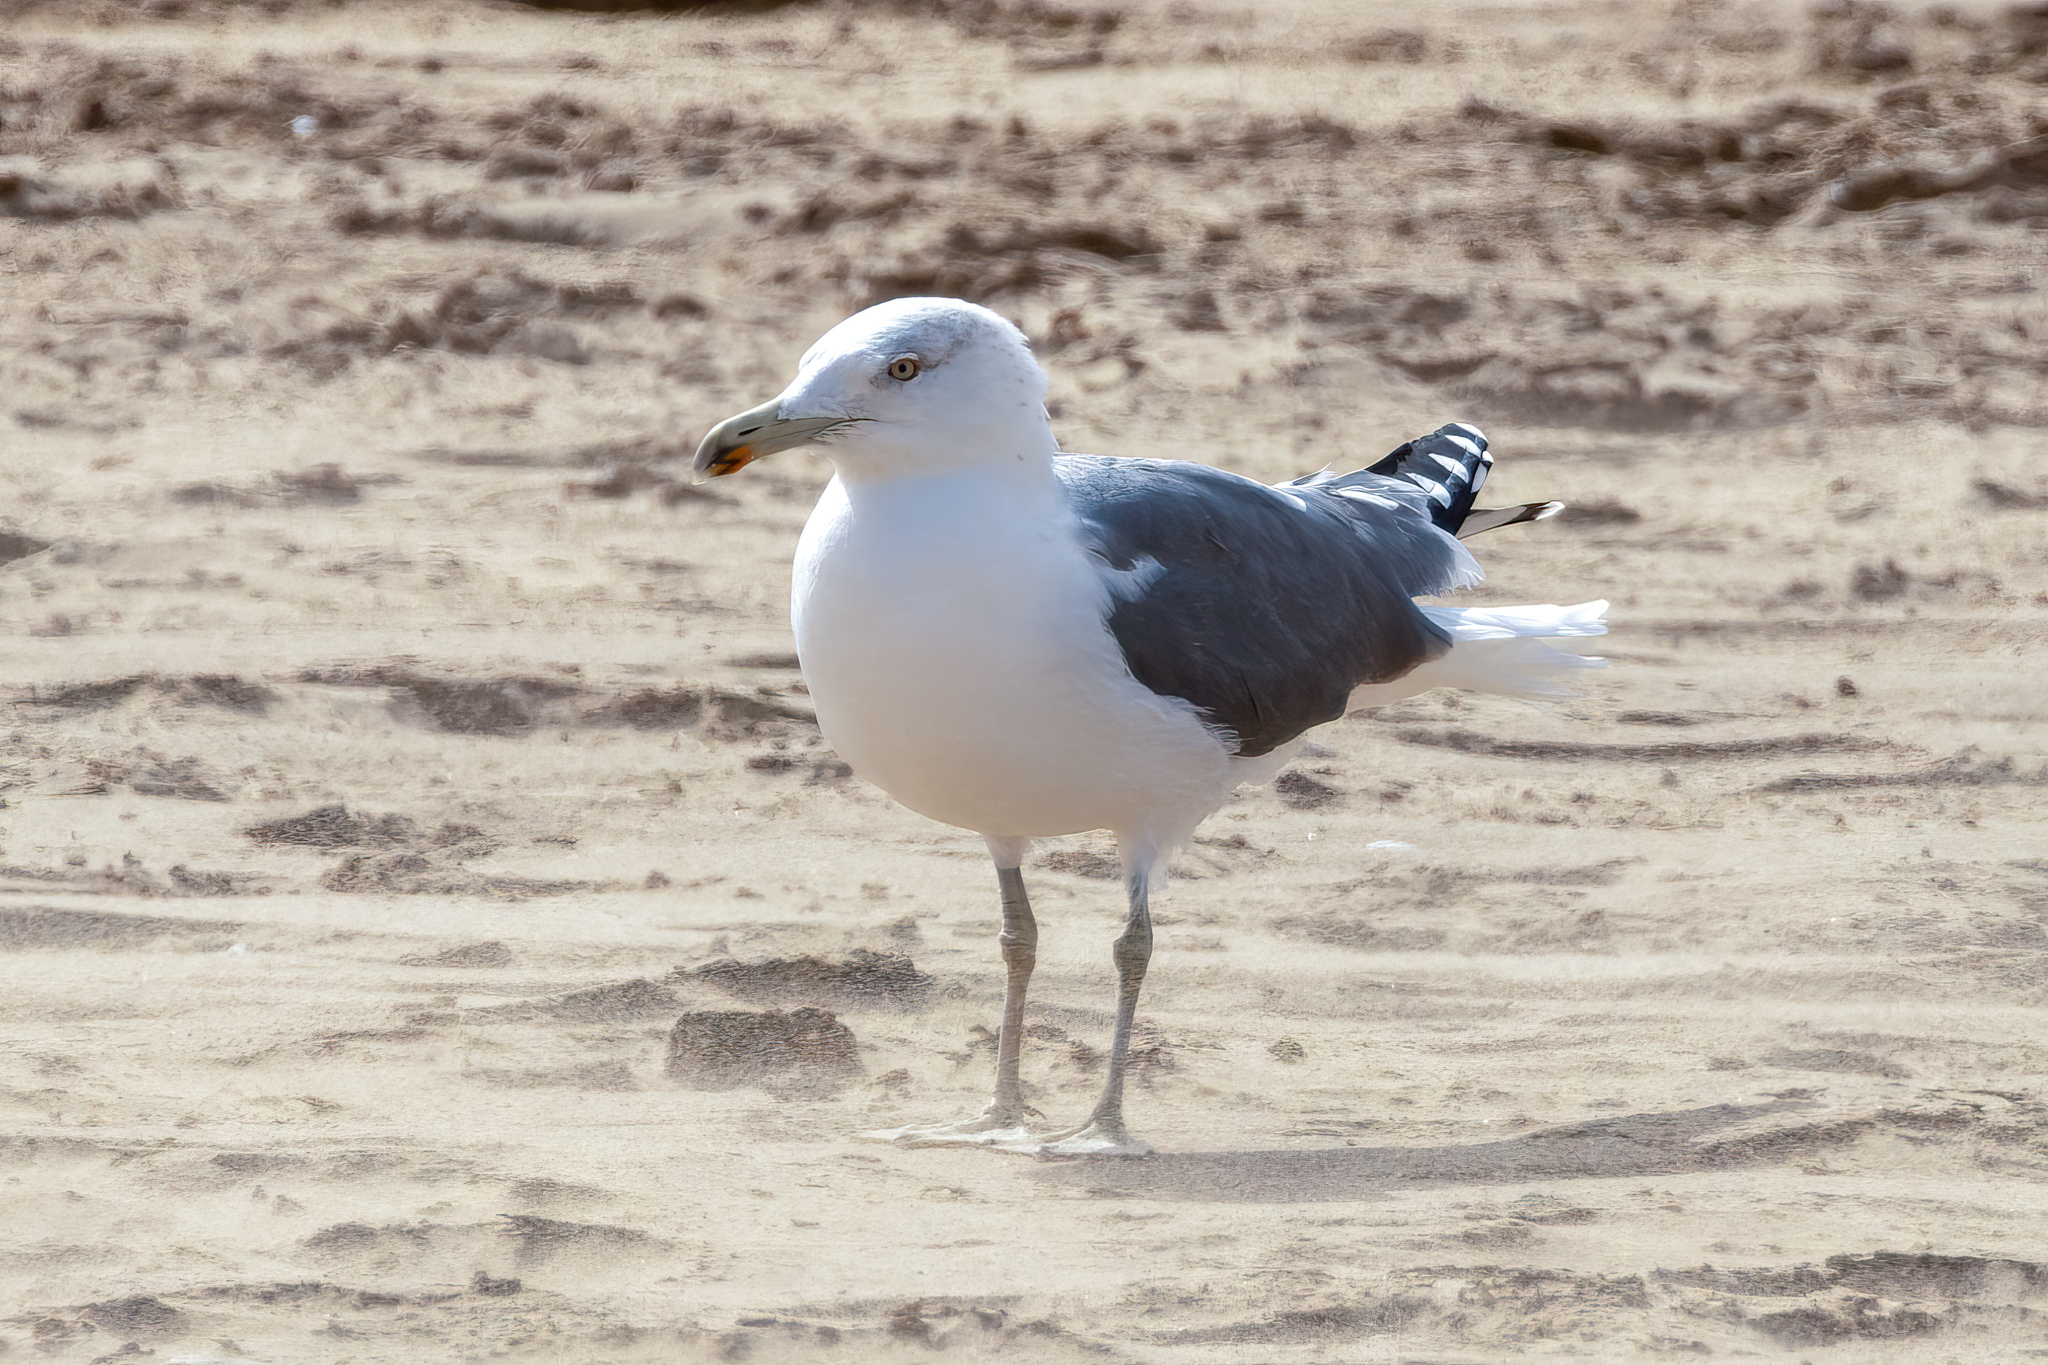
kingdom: Animalia
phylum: Chordata
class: Aves
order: Charadriiformes
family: Laridae
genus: Larus
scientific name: Larus fuscus
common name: Lesser black-backed gull
